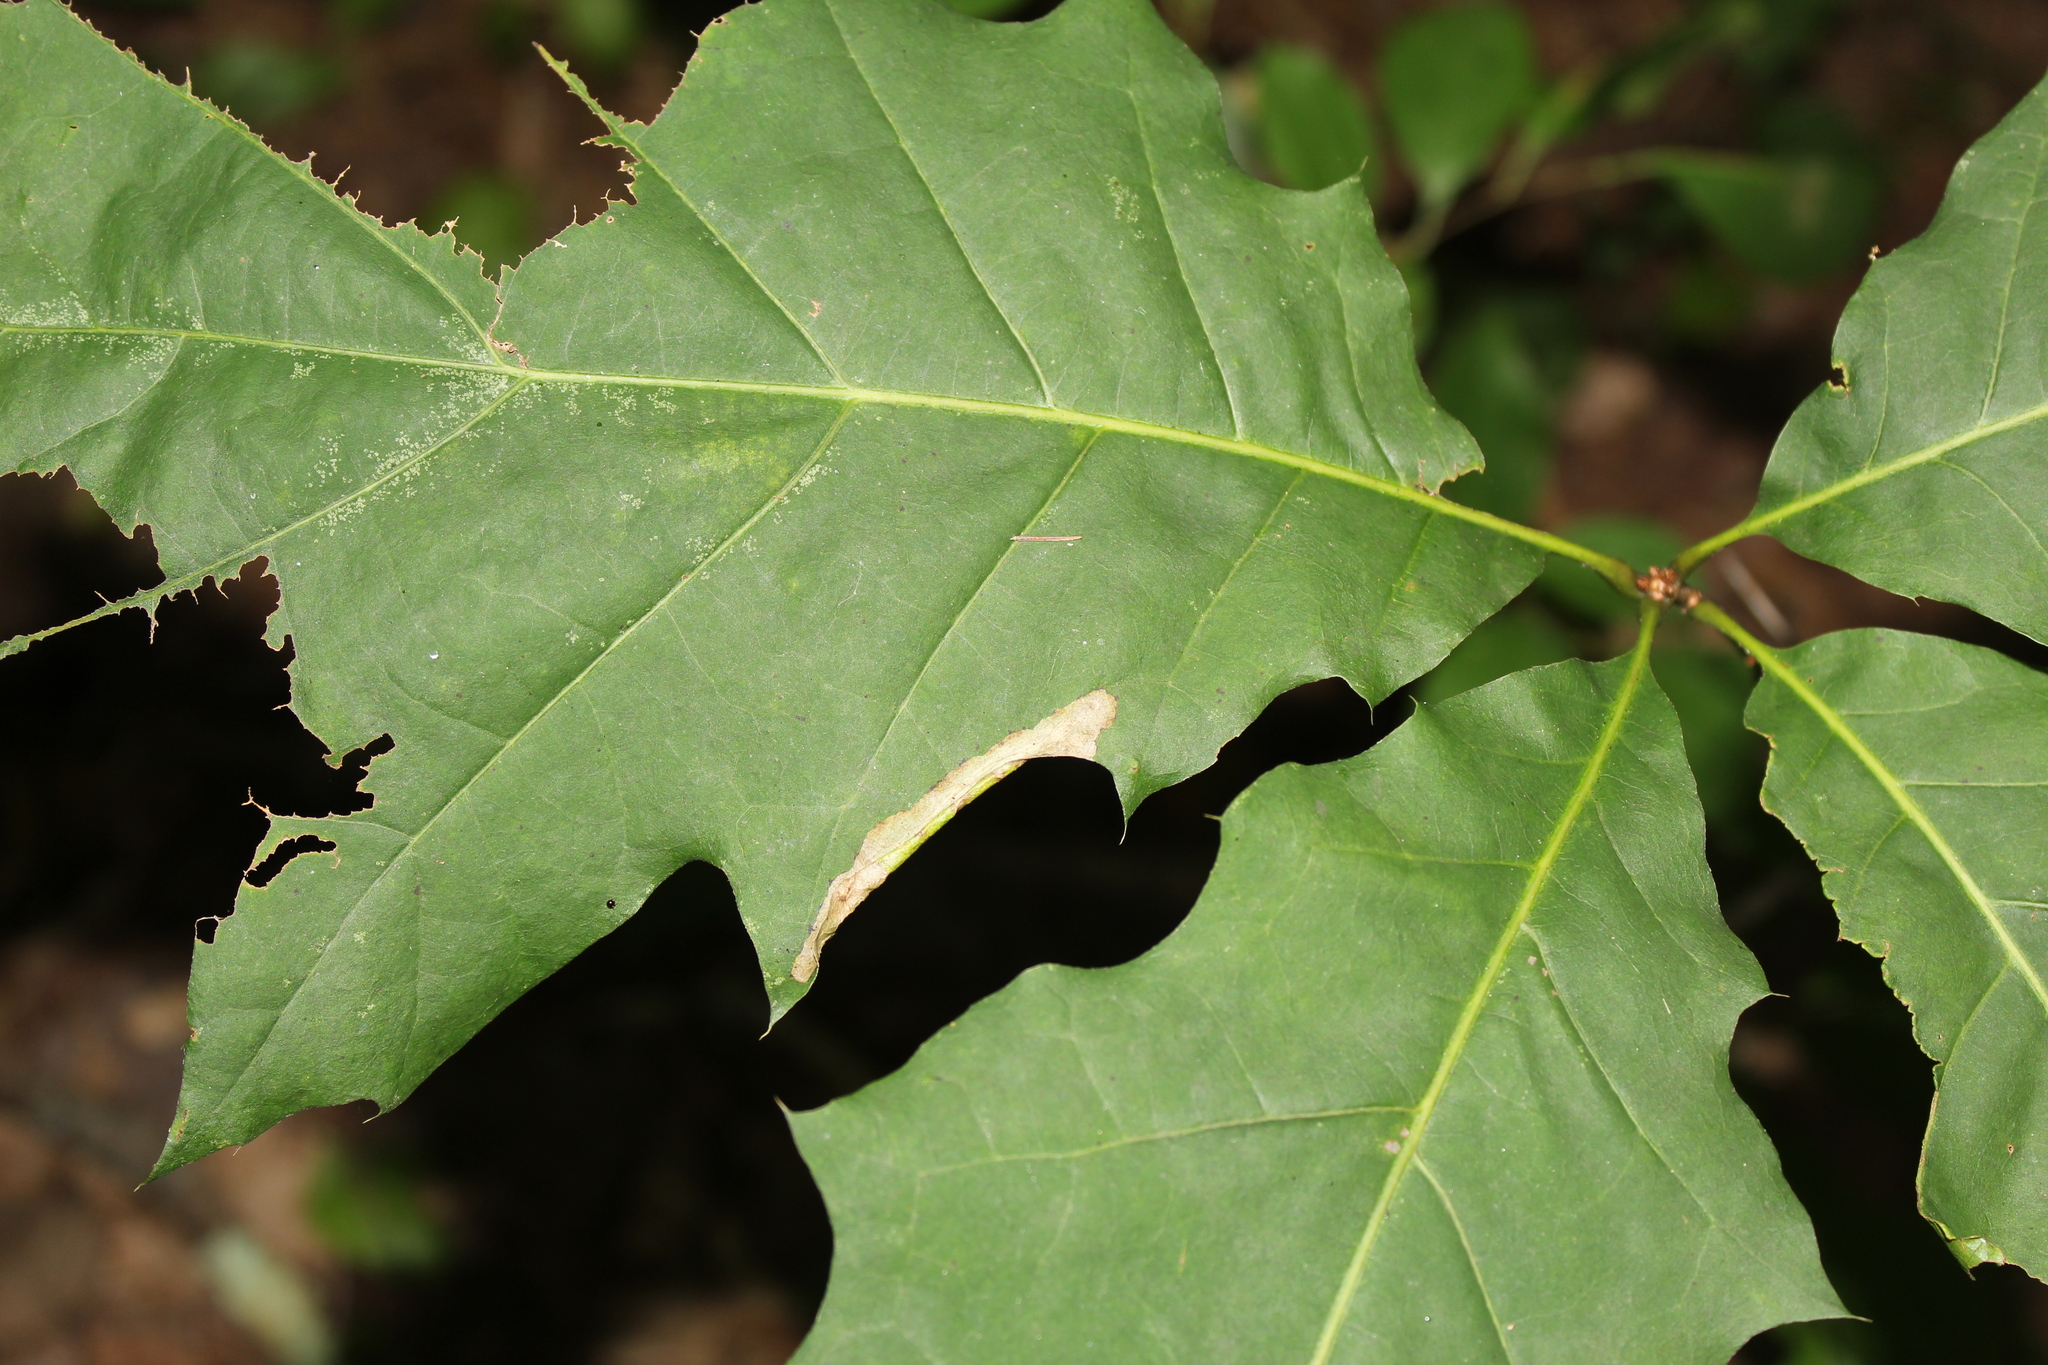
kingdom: Animalia
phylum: Arthropoda
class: Insecta
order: Lepidoptera
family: Tischeriidae
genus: Coptotriche
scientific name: Coptotriche citrinipennella
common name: The golden sweeper
